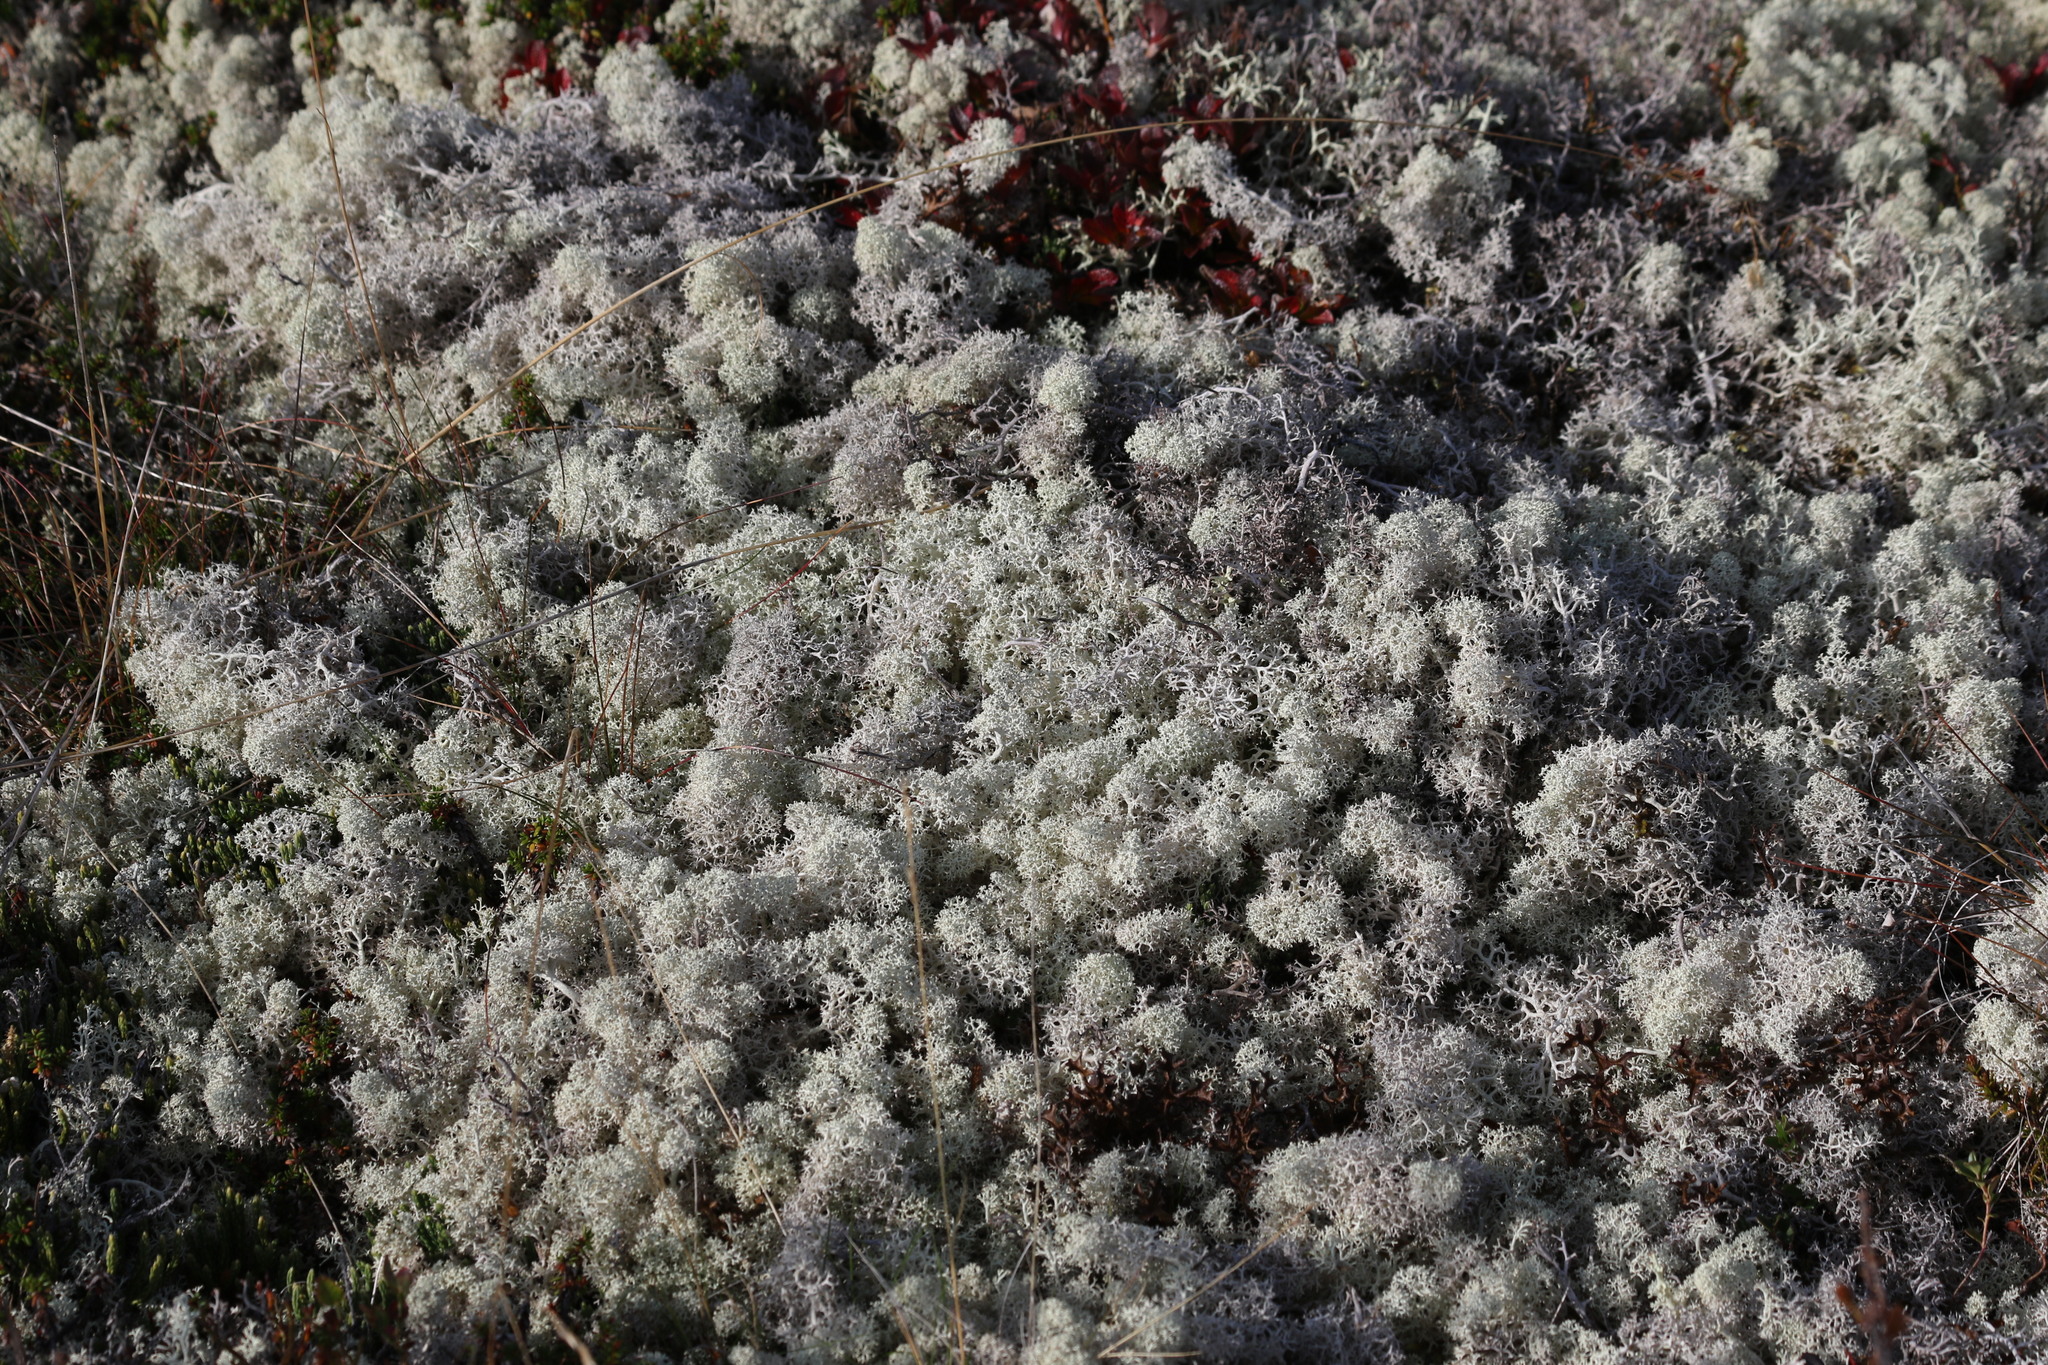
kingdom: Fungi
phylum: Ascomycota
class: Lecanoromycetes
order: Lecanorales
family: Cladoniaceae
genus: Cladonia
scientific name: Cladonia stellaris
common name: Star-tipped reindeer lichen
